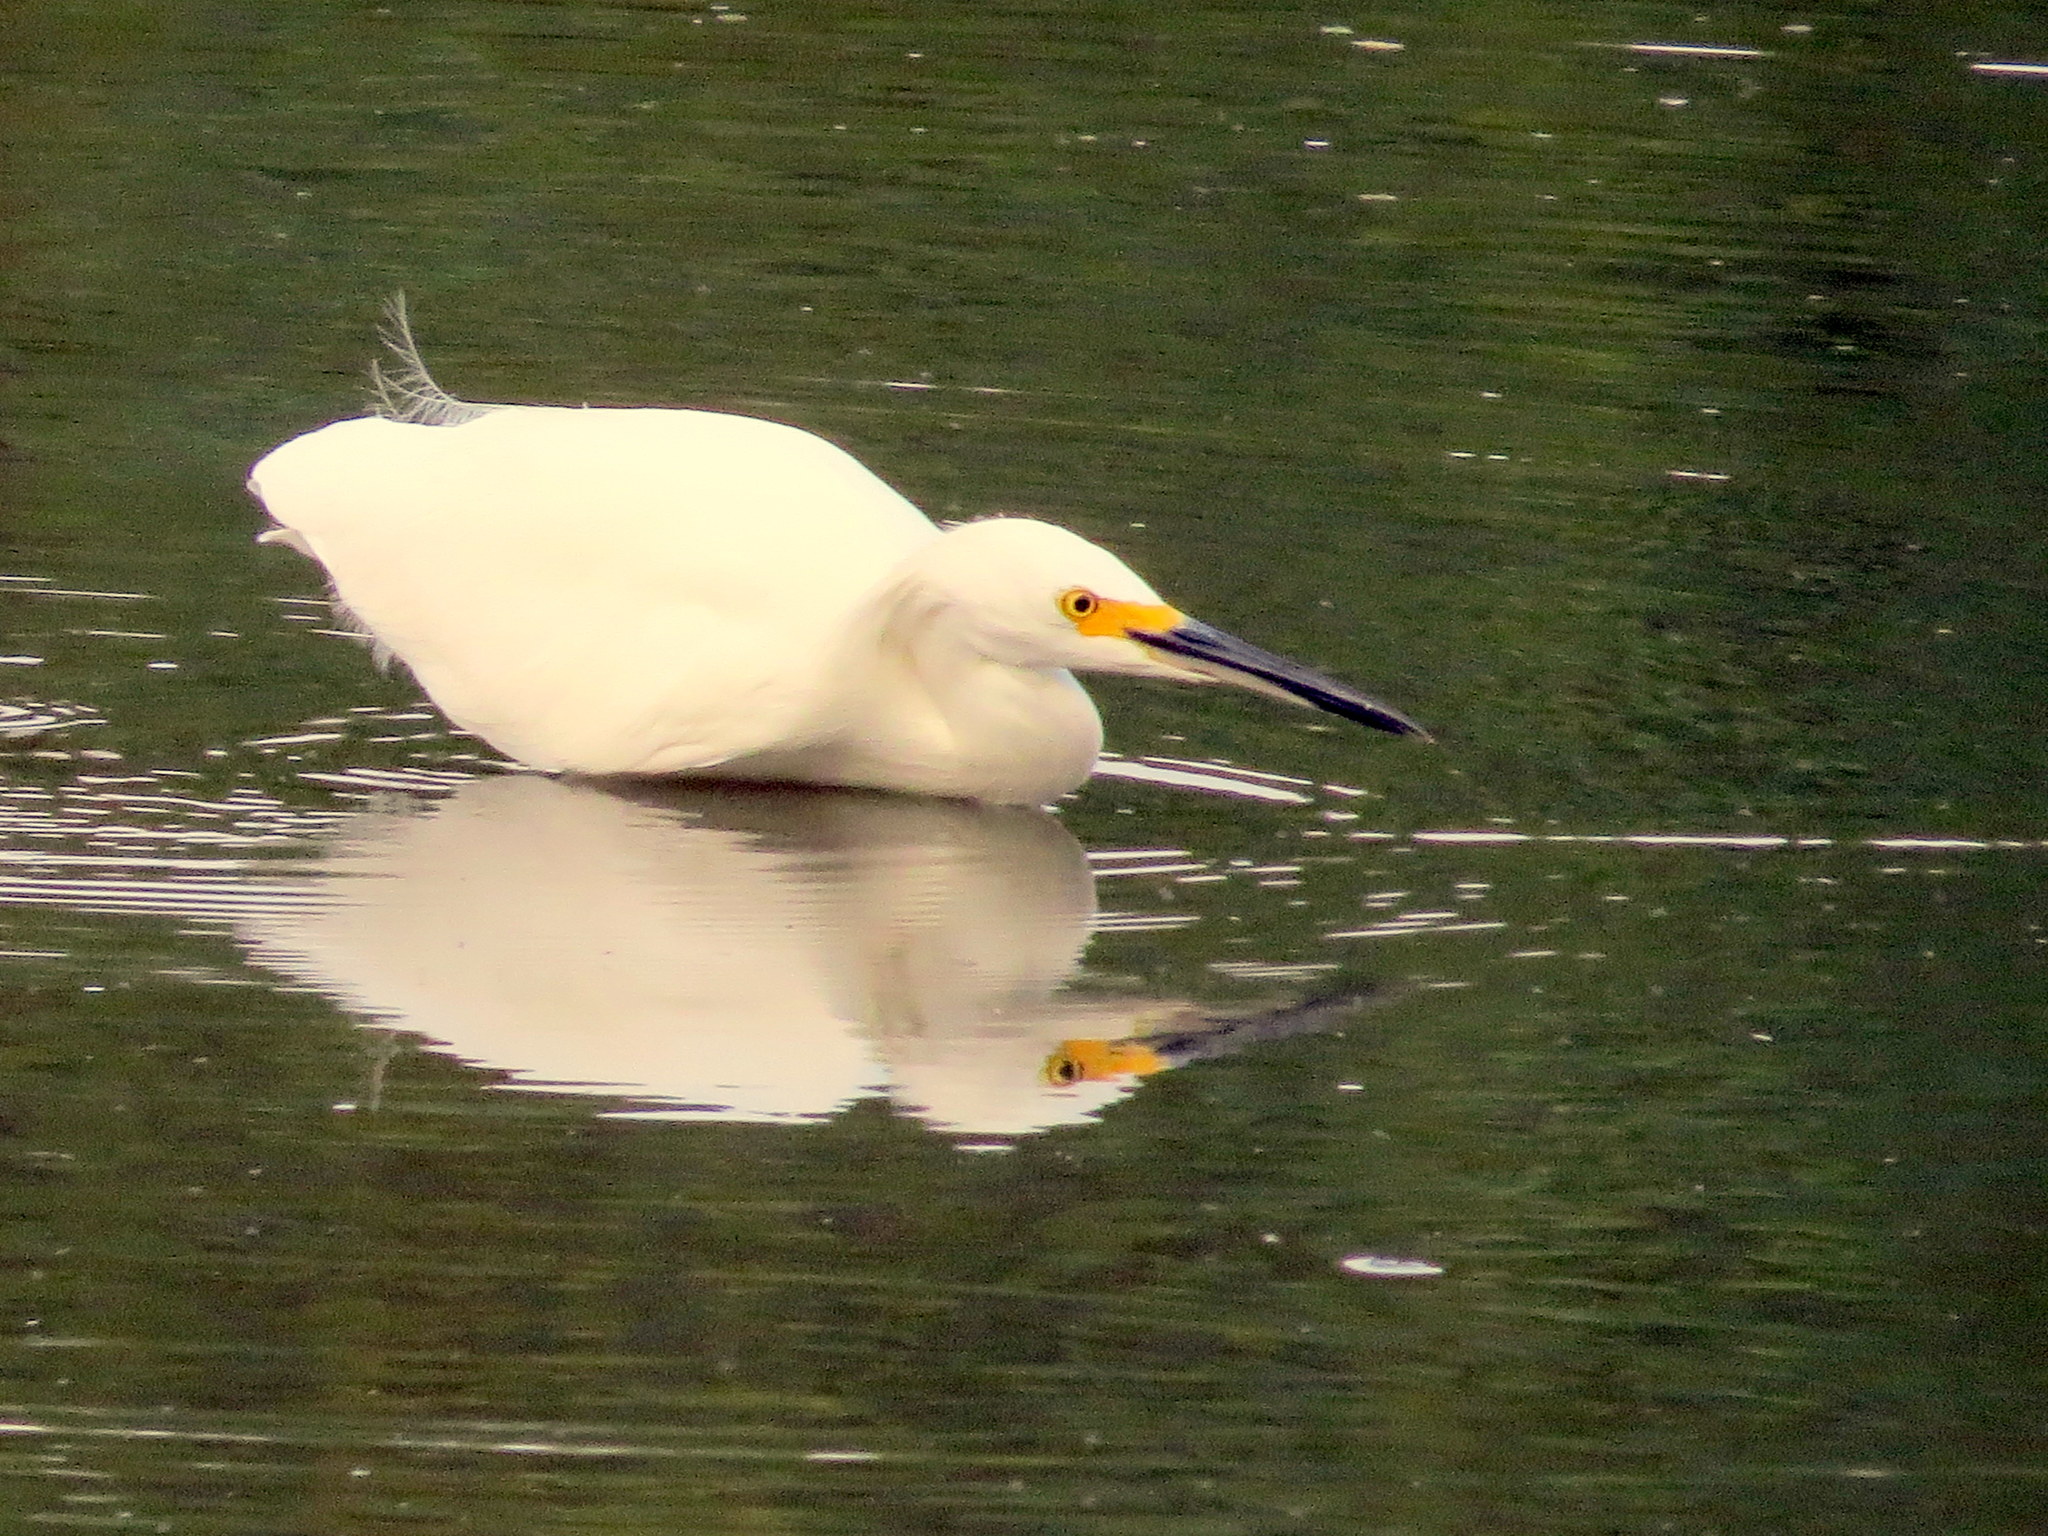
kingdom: Animalia
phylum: Chordata
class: Aves
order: Pelecaniformes
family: Ardeidae
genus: Egretta
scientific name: Egretta thula
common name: Snowy egret
